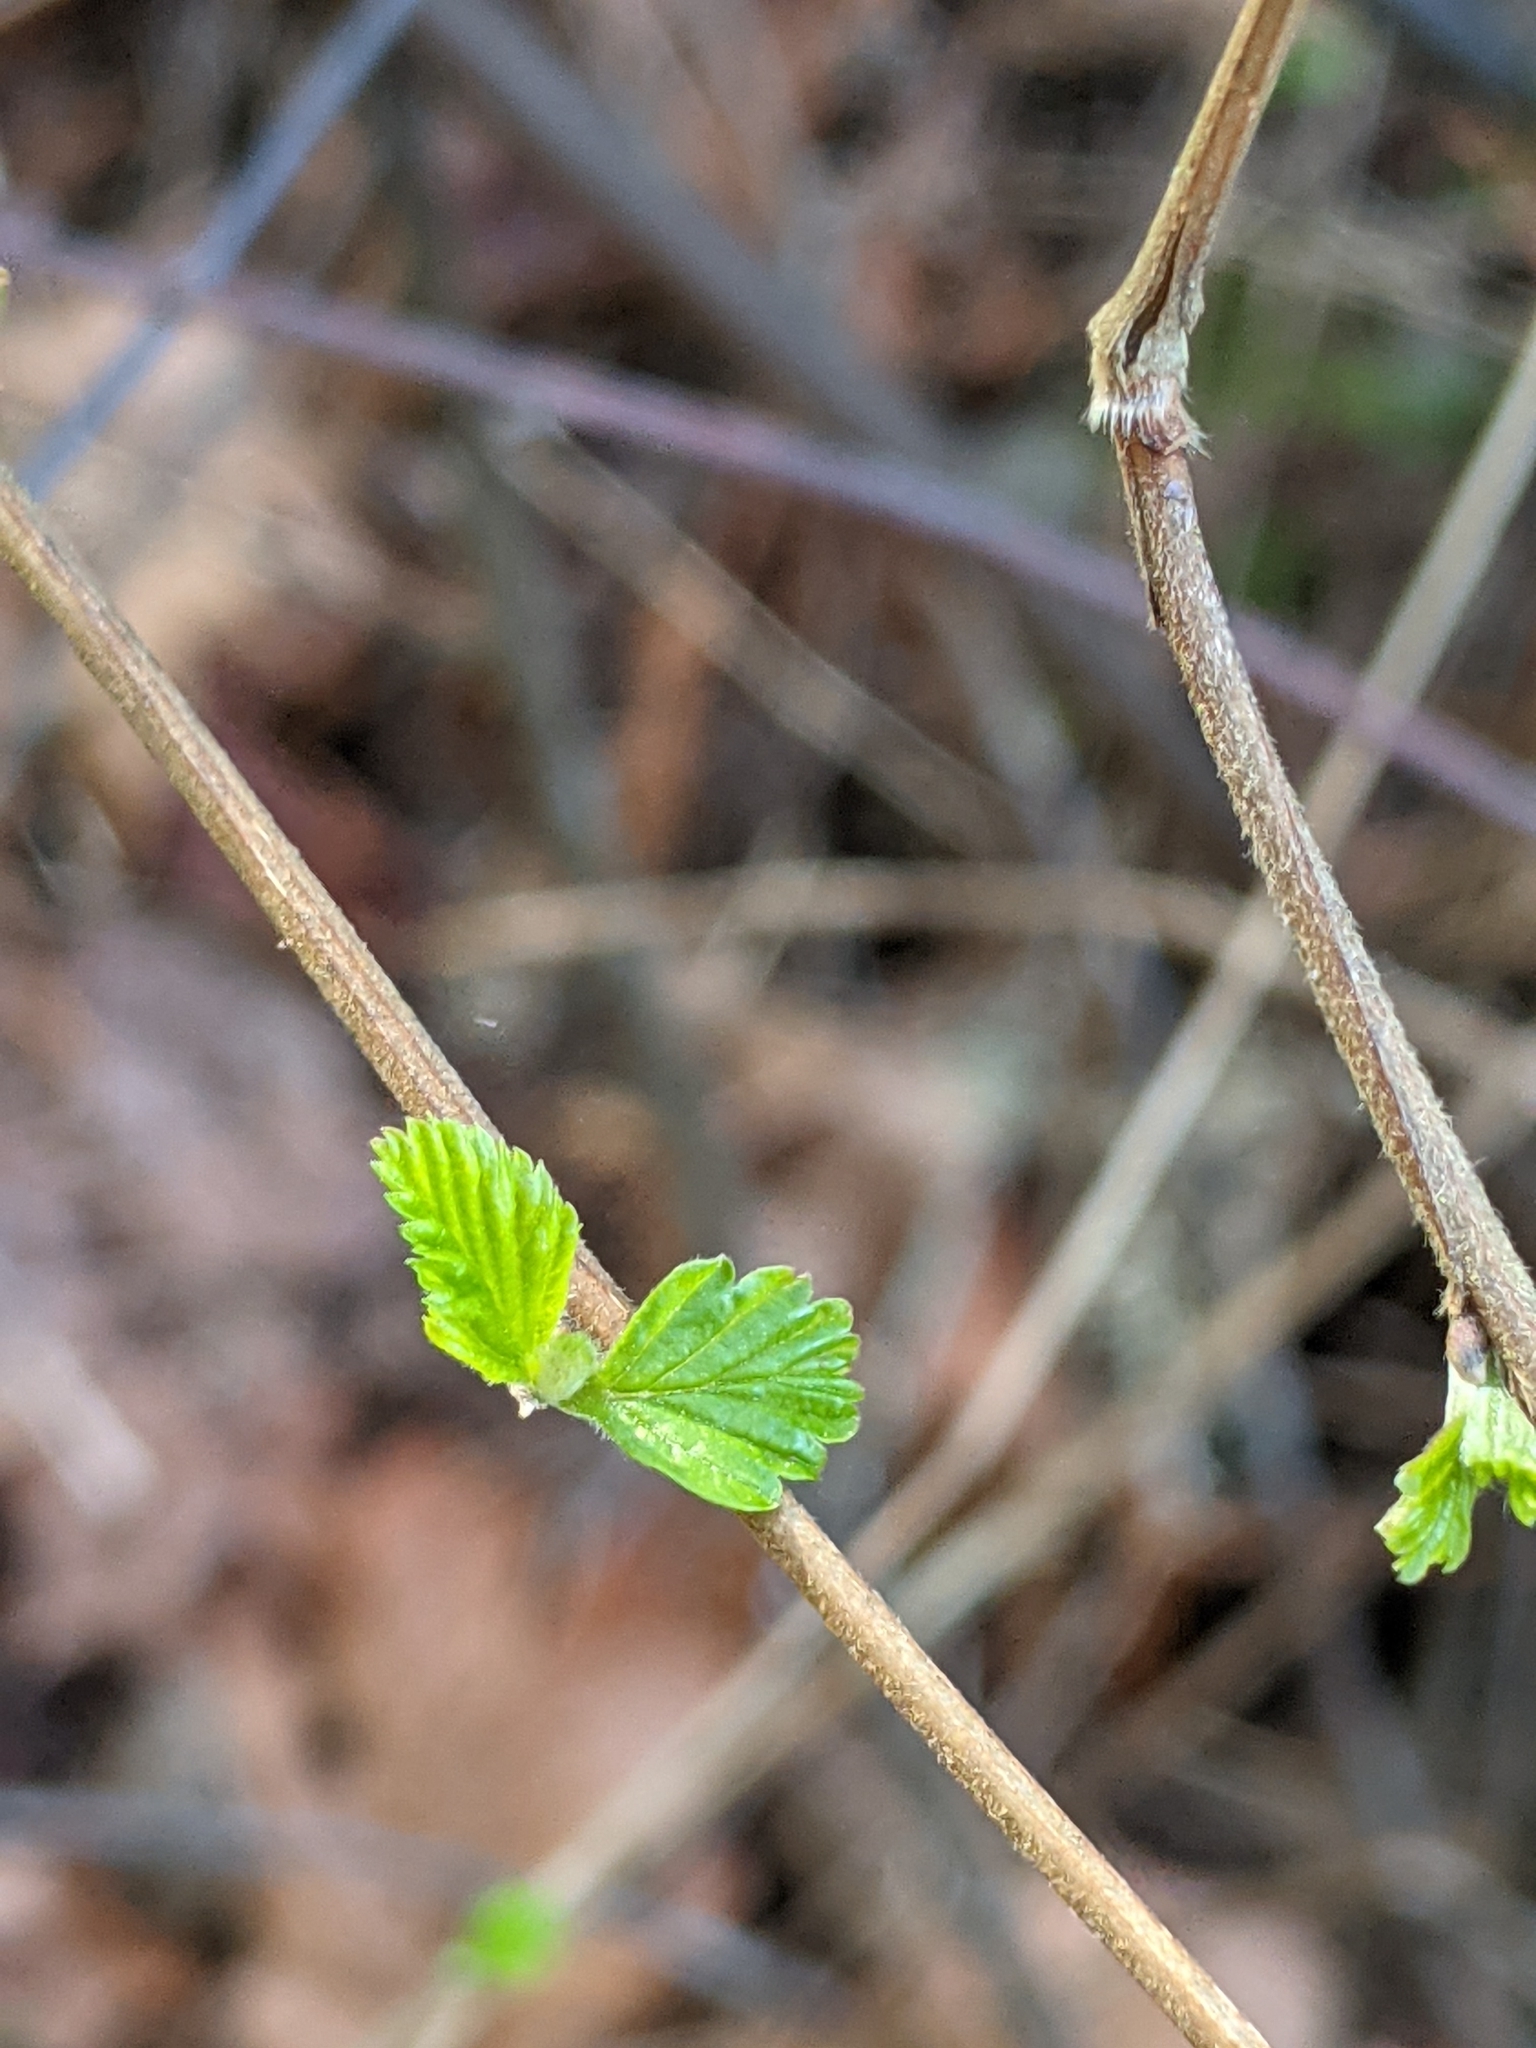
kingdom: Plantae
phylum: Tracheophyta
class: Magnoliopsida
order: Rosales
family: Rosaceae
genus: Holodiscus
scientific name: Holodiscus discolor
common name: Oceanspray
